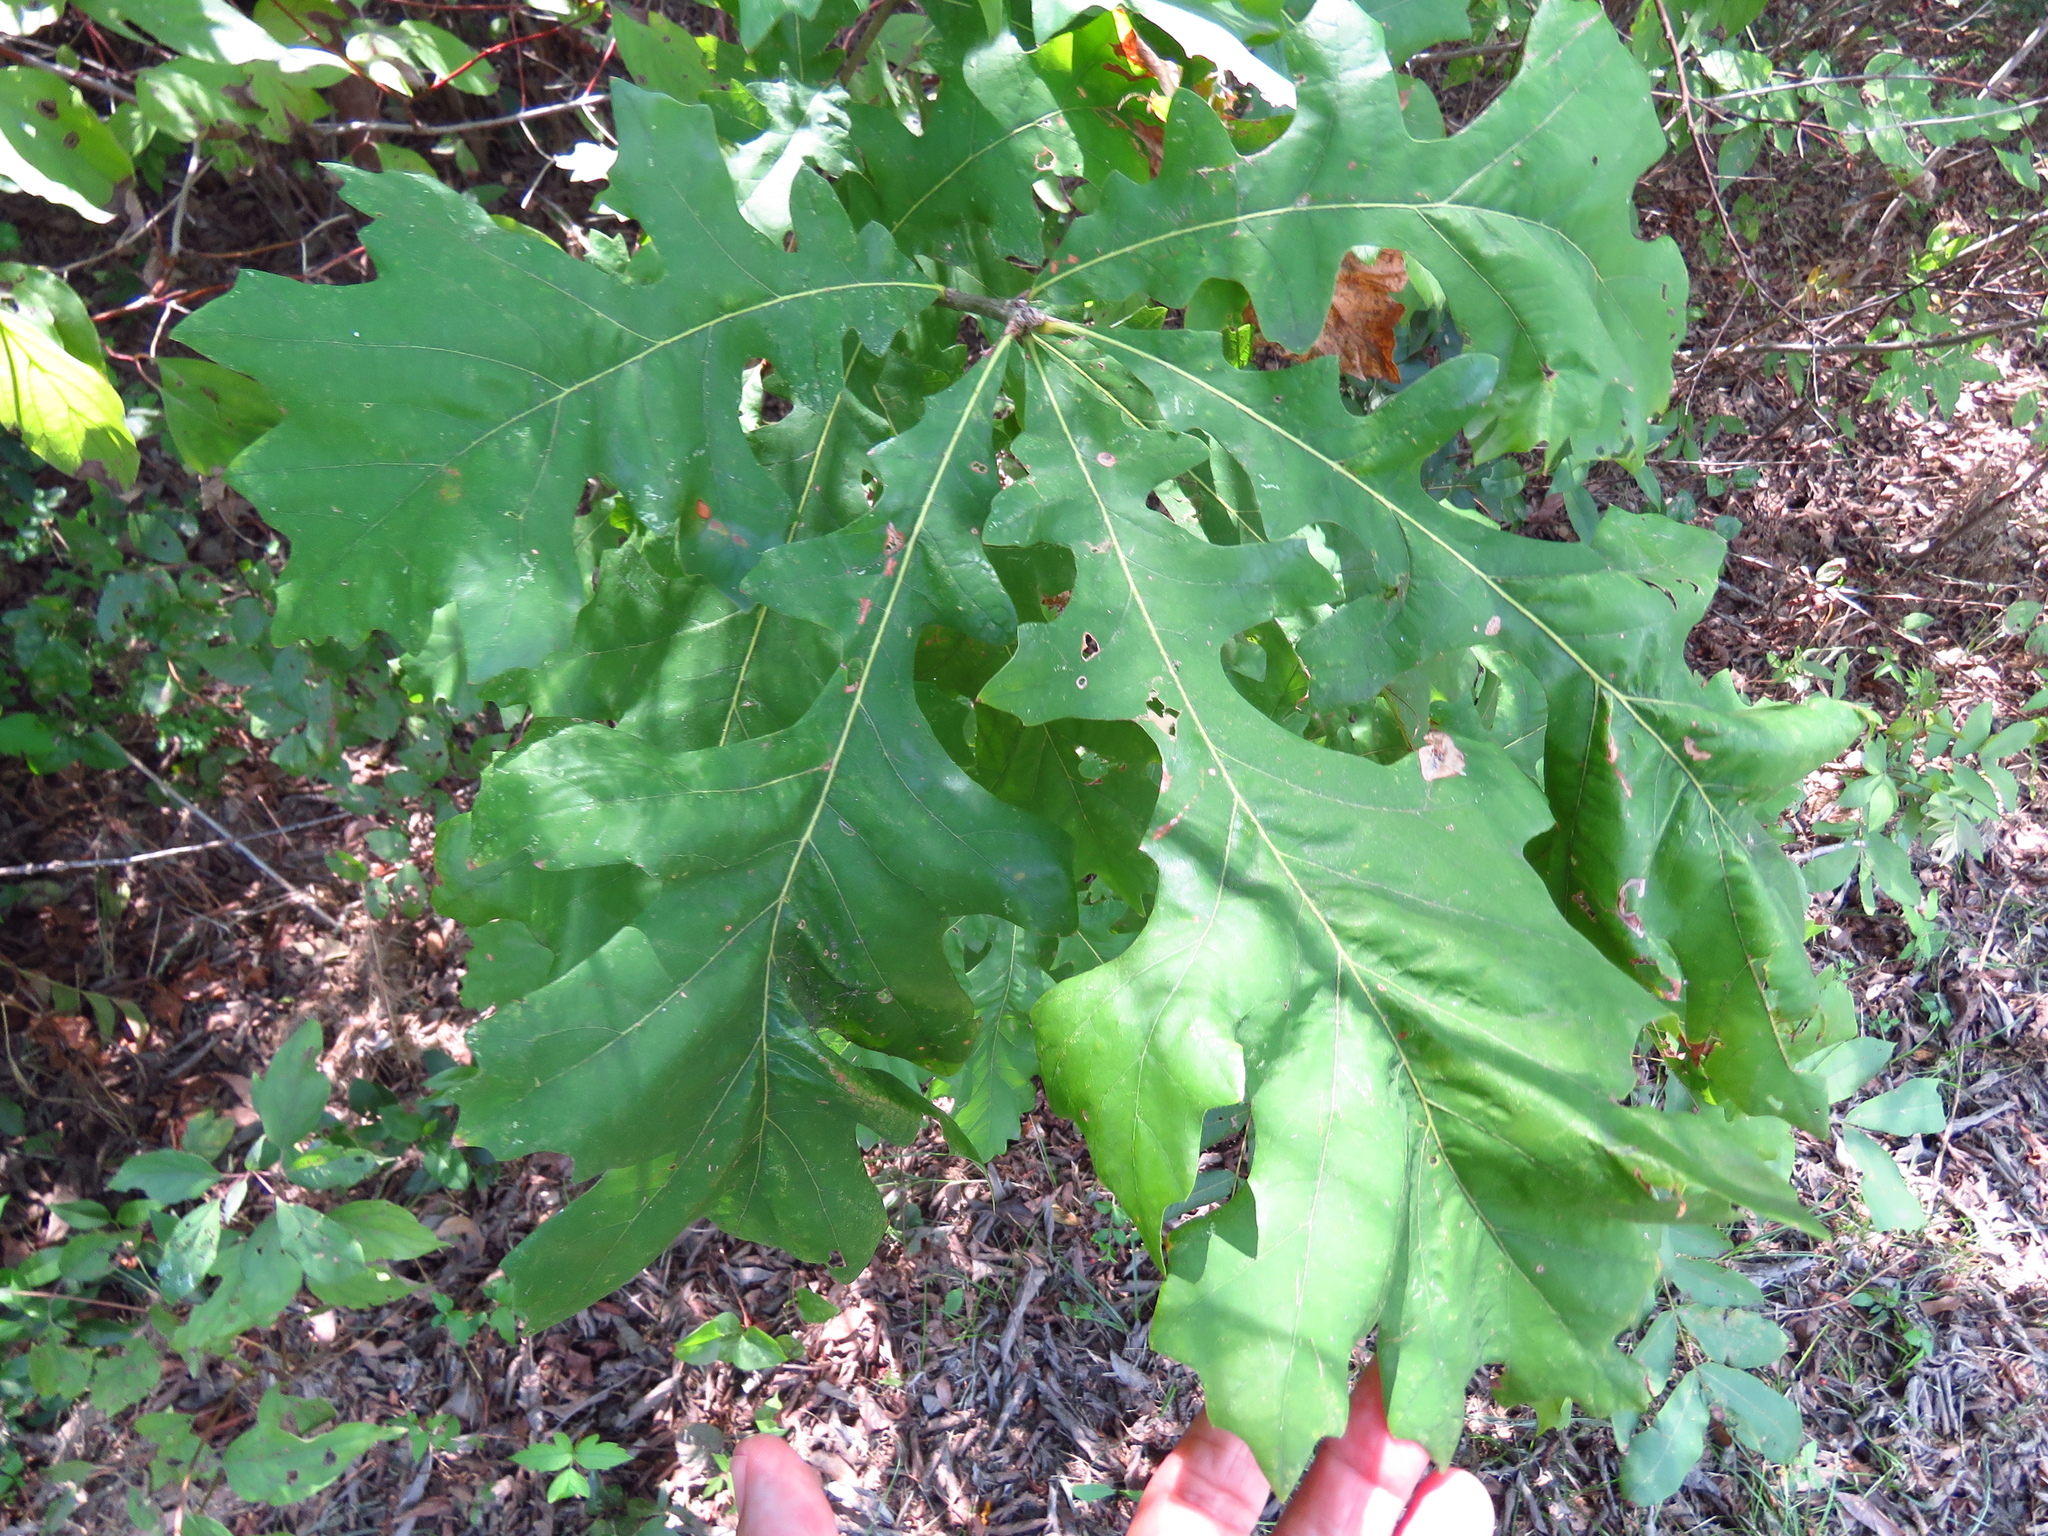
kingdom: Plantae
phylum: Tracheophyta
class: Magnoliopsida
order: Fagales
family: Fagaceae
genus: Quercus
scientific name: Quercus macrocarpa
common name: Bur oak
